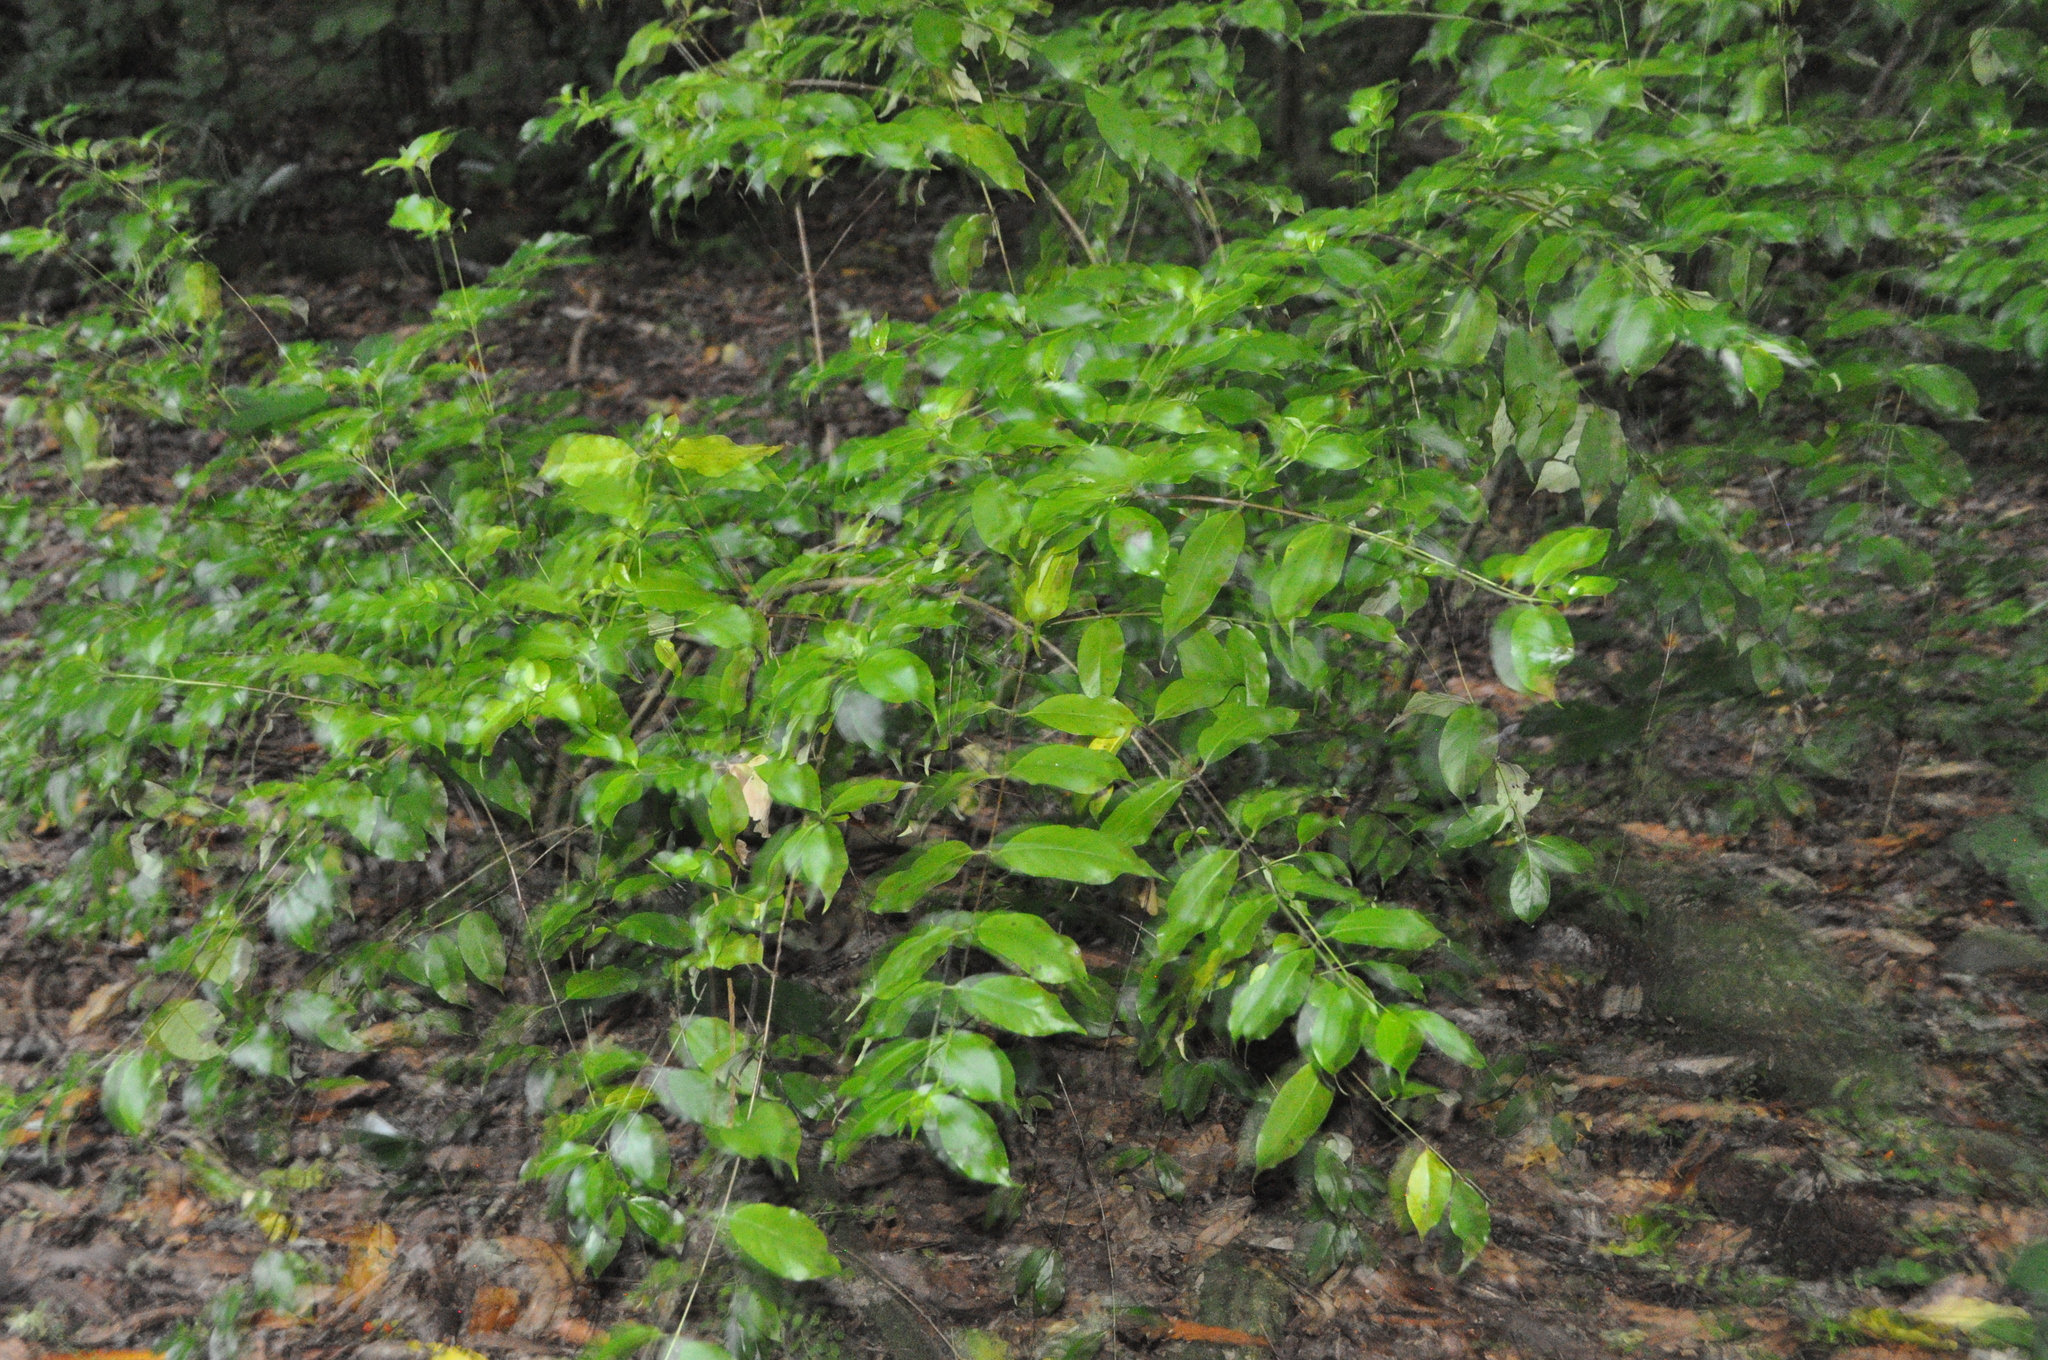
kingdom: Plantae
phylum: Tracheophyta
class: Magnoliopsida
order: Gentianales
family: Loganiaceae
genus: Geniostoma
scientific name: Geniostoma ligustrifolium
